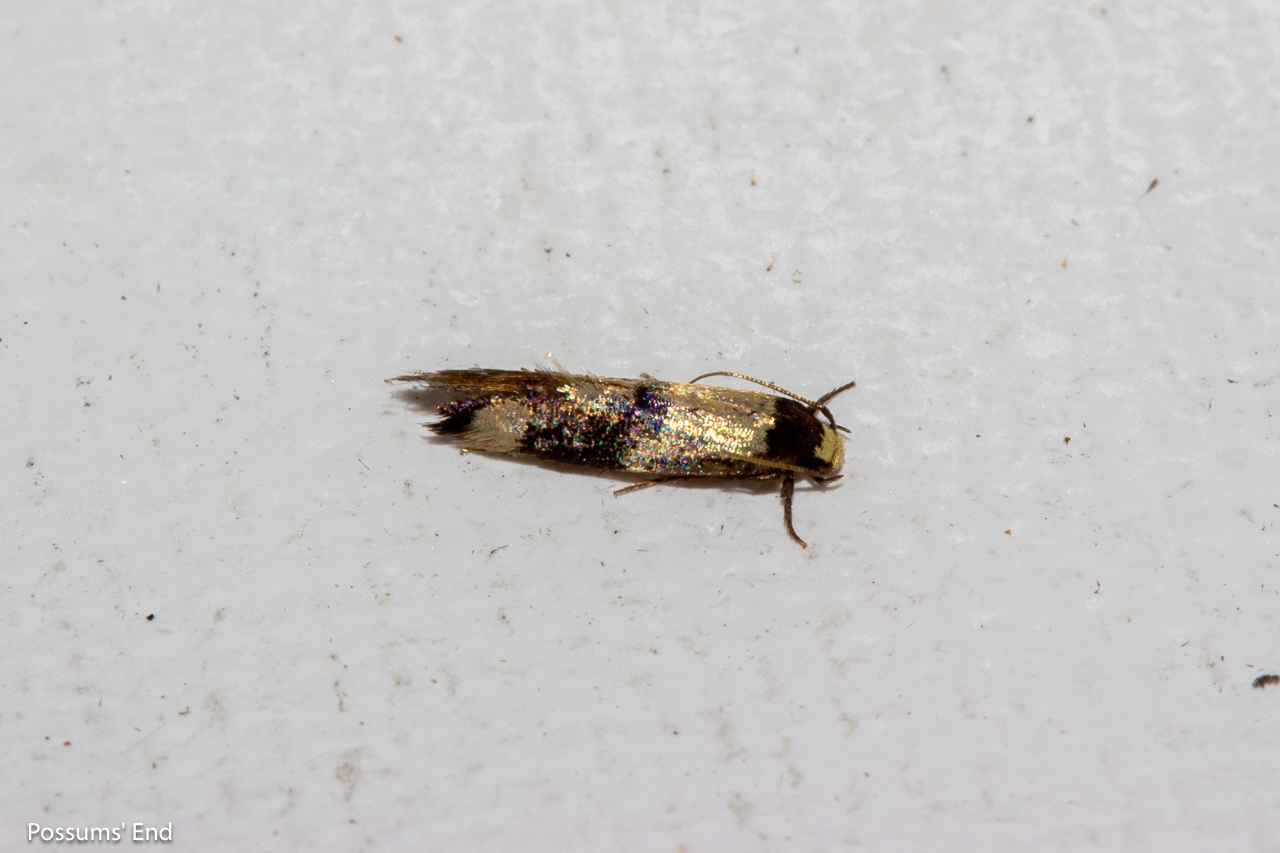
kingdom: Animalia
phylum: Arthropoda
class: Insecta
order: Lepidoptera
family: Tineidae
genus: Opogona
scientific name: Opogona comptella
